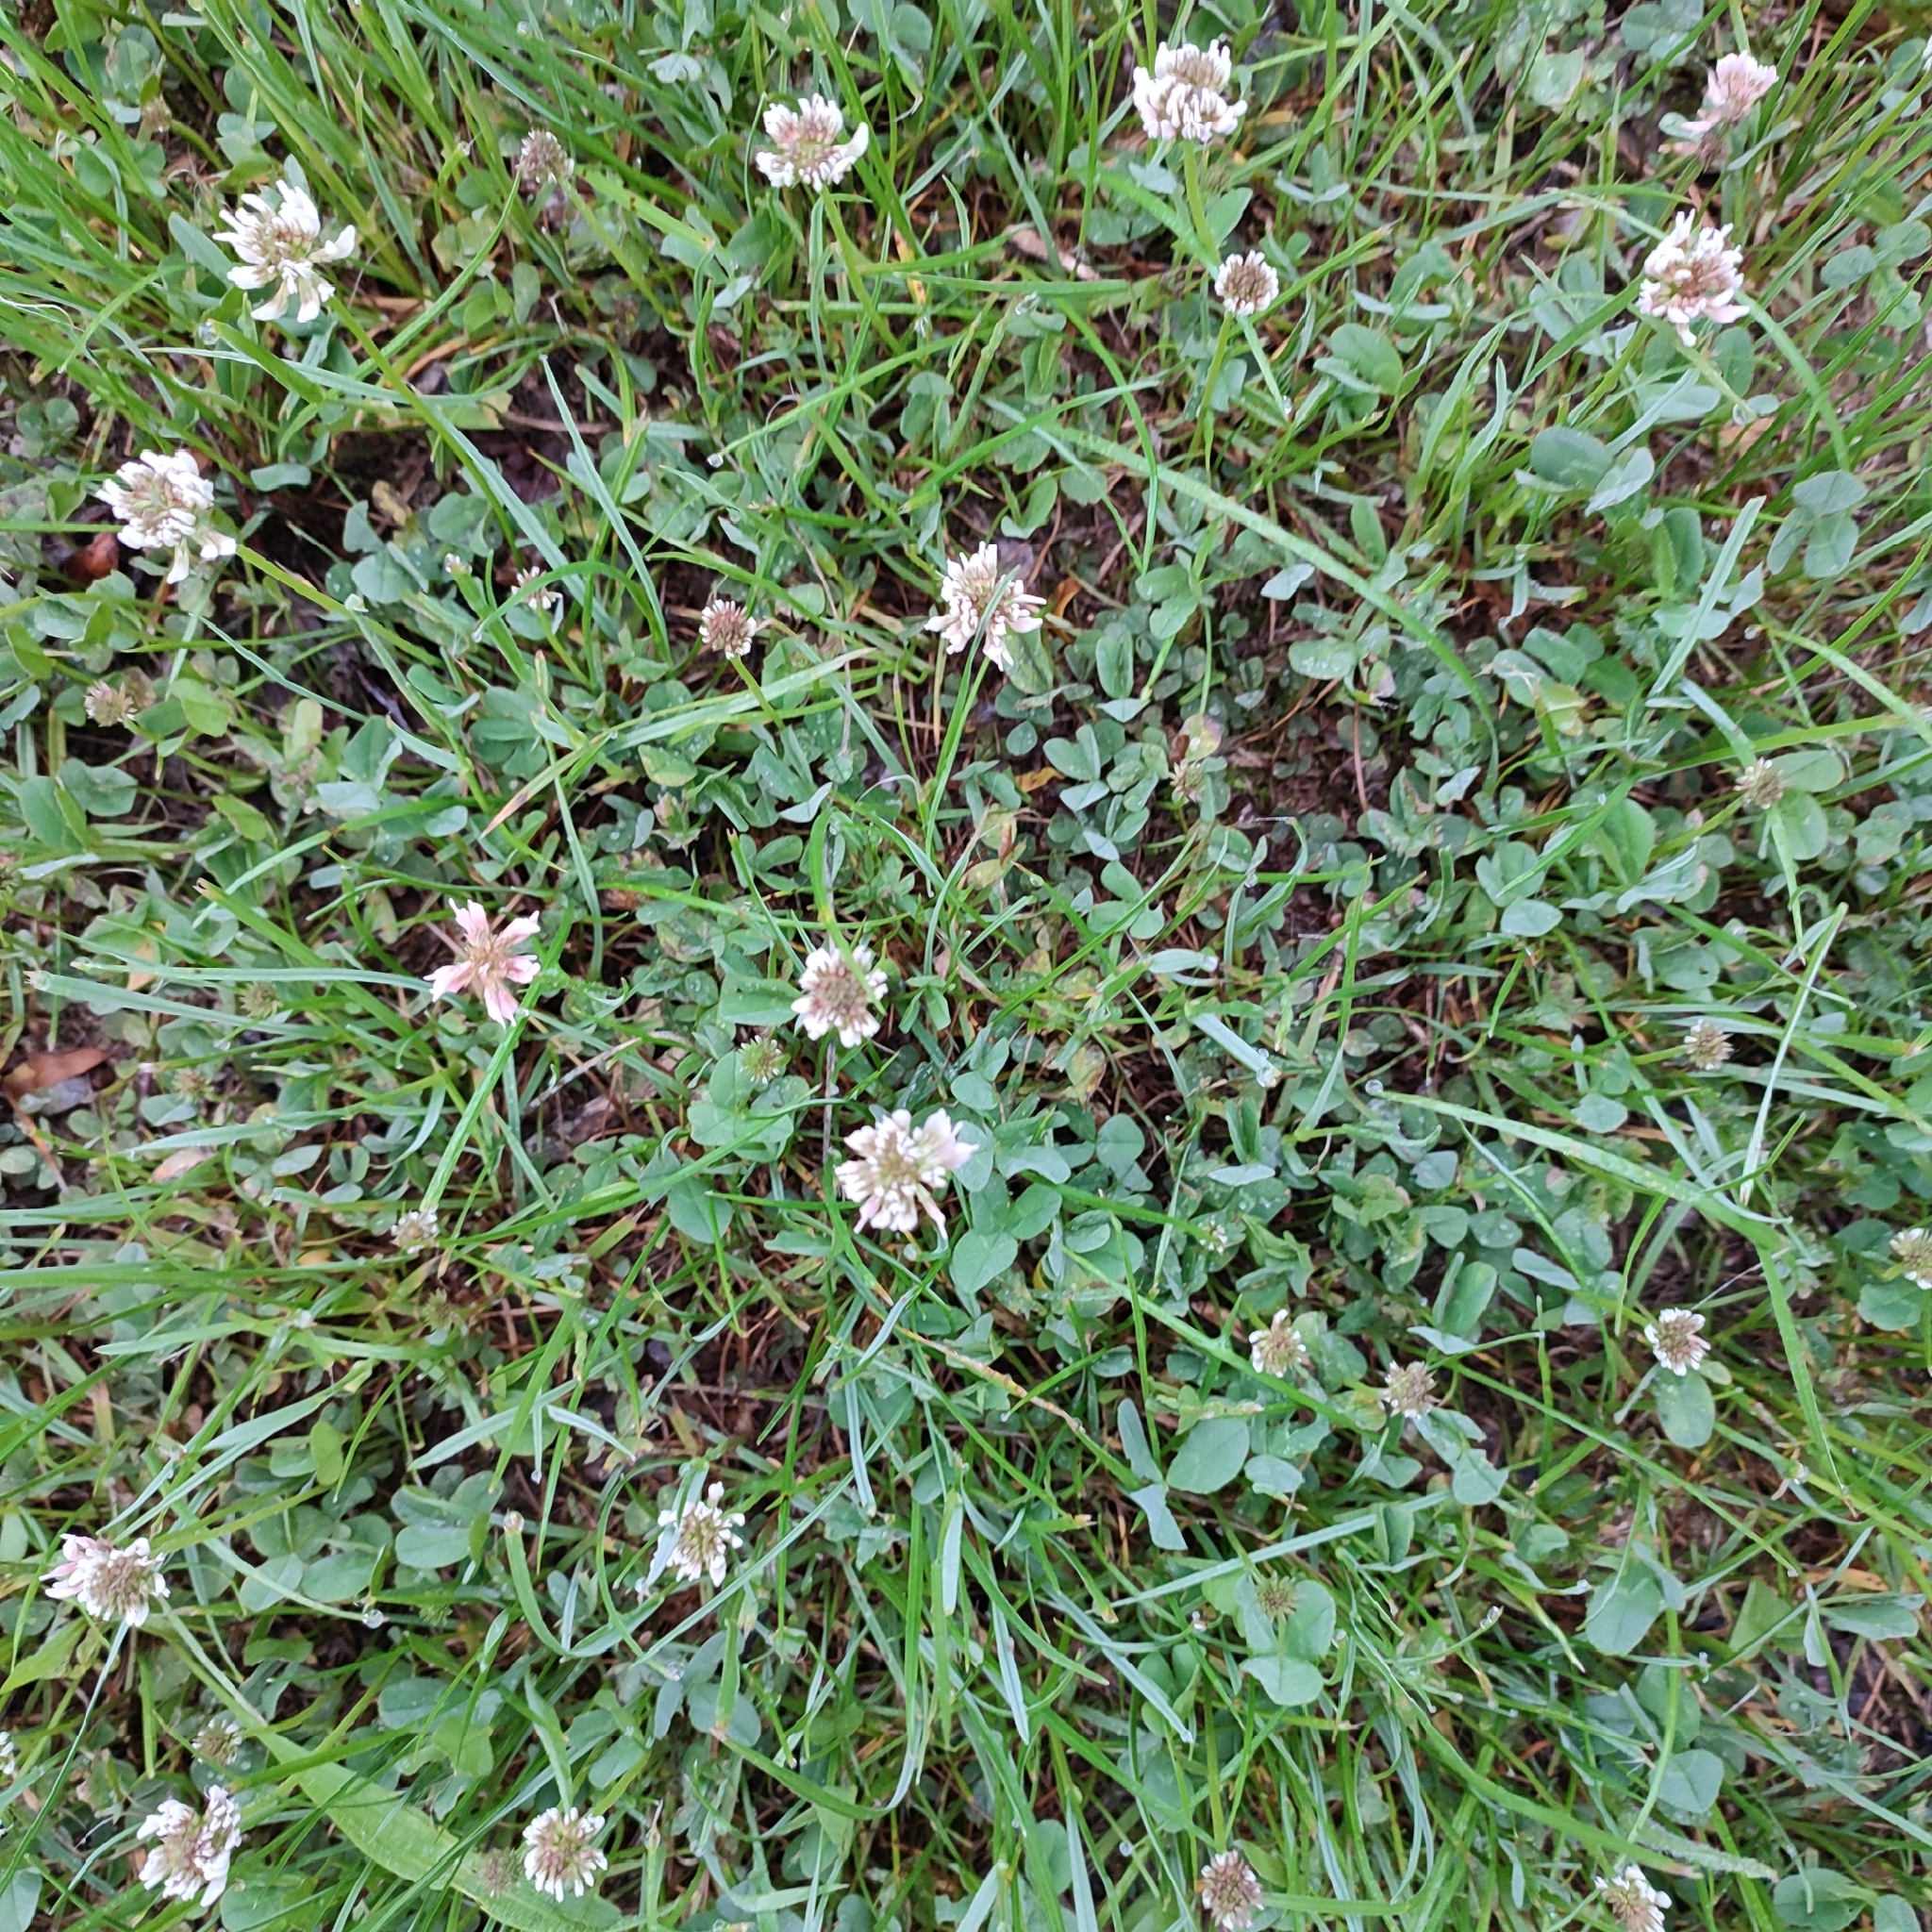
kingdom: Plantae
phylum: Tracheophyta
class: Magnoliopsida
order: Fabales
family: Fabaceae
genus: Trifolium
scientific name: Trifolium repens
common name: White clover
